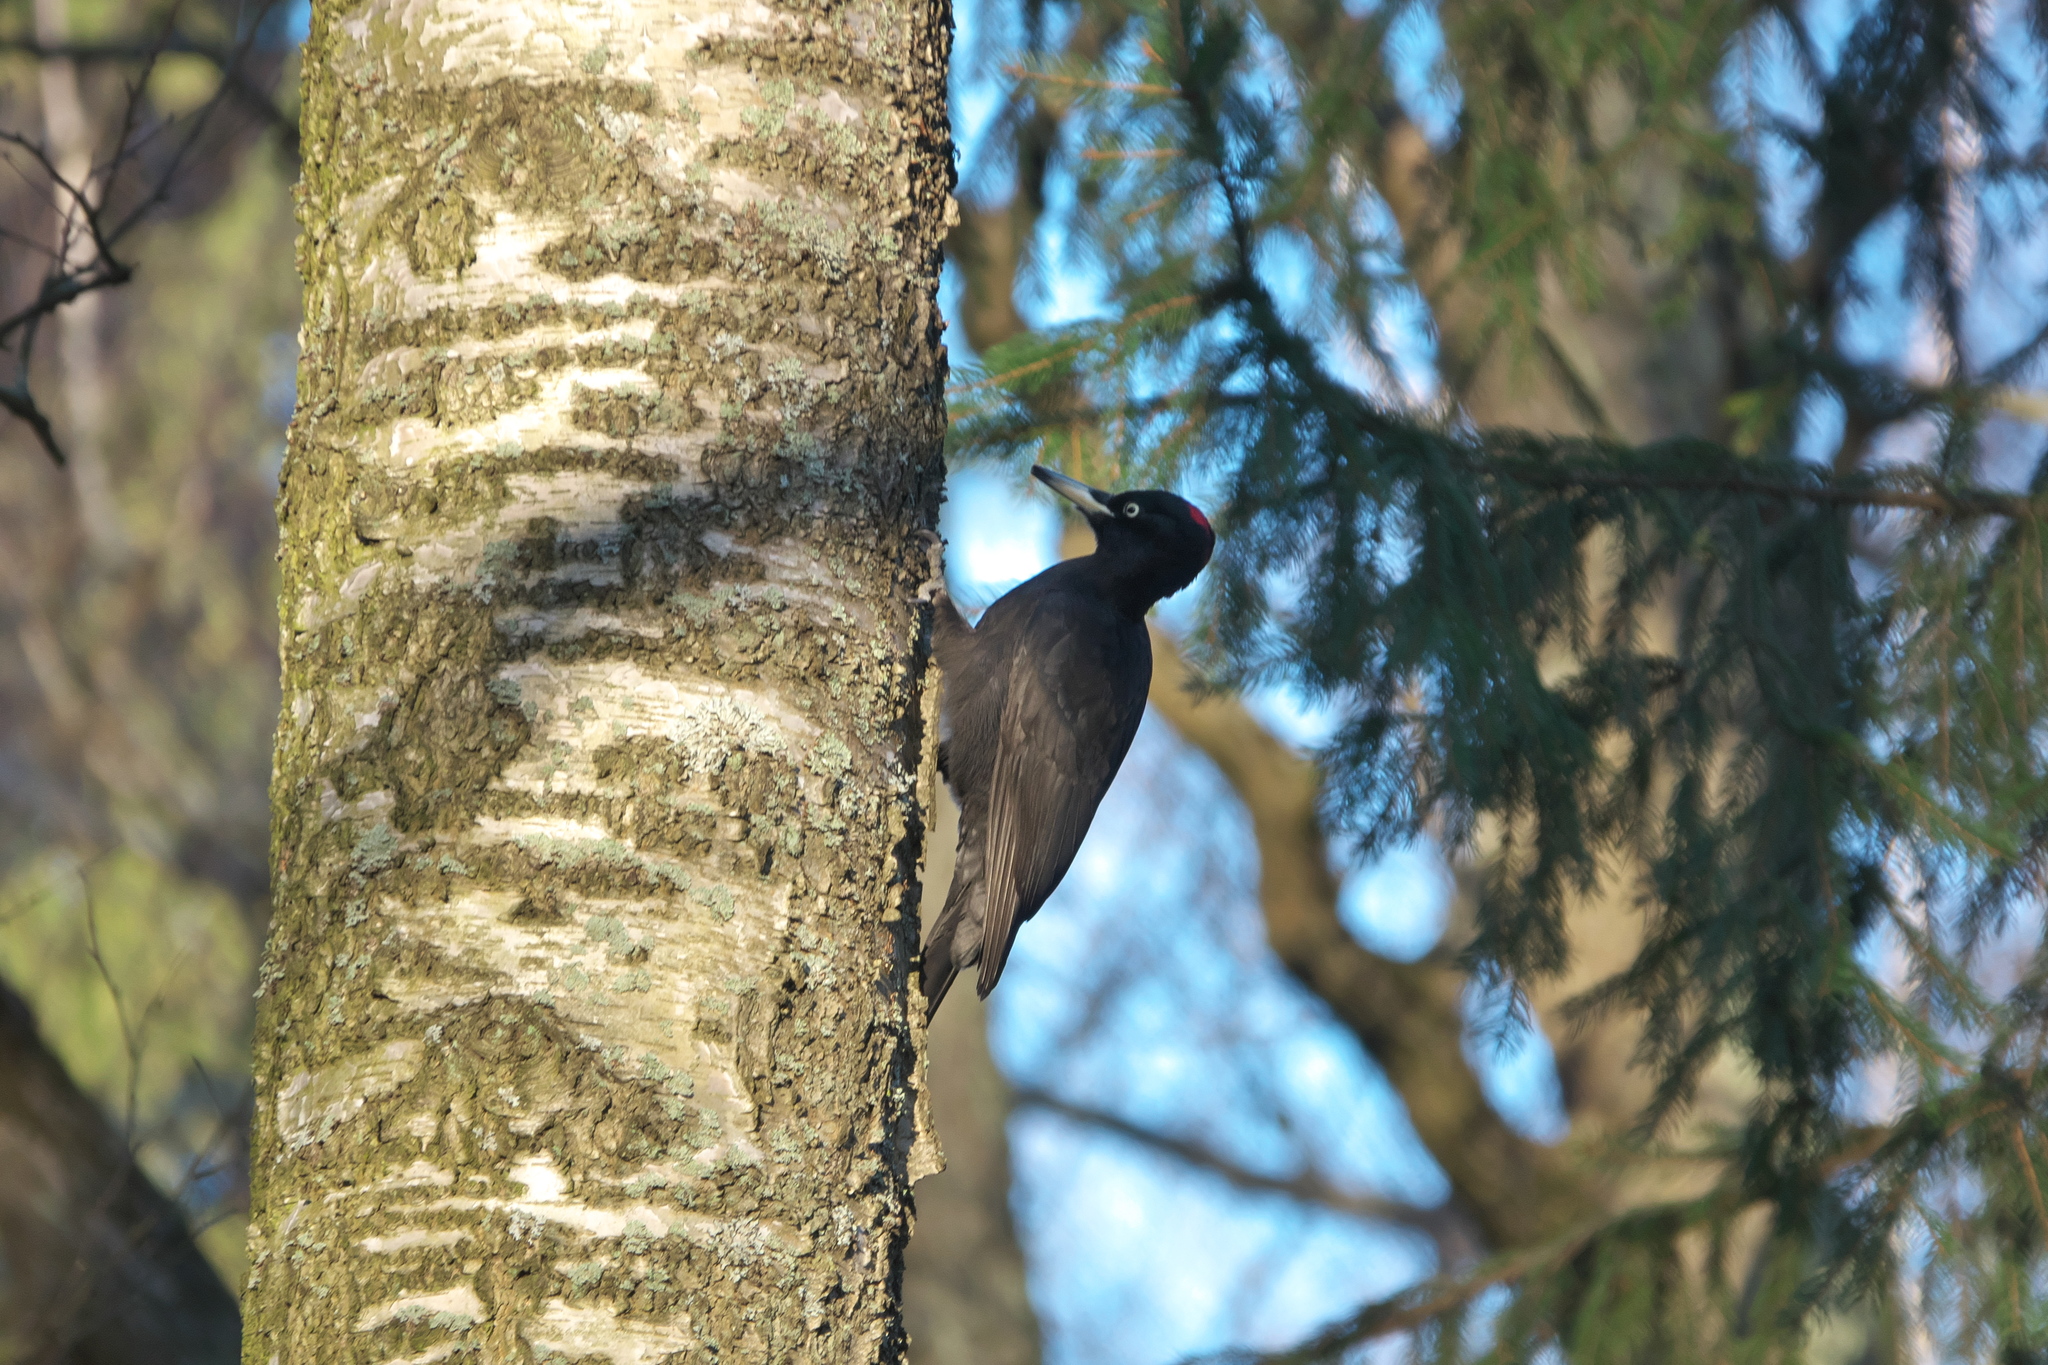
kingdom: Animalia
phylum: Chordata
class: Aves
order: Piciformes
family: Picidae
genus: Dryocopus
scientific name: Dryocopus martius
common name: Black woodpecker
